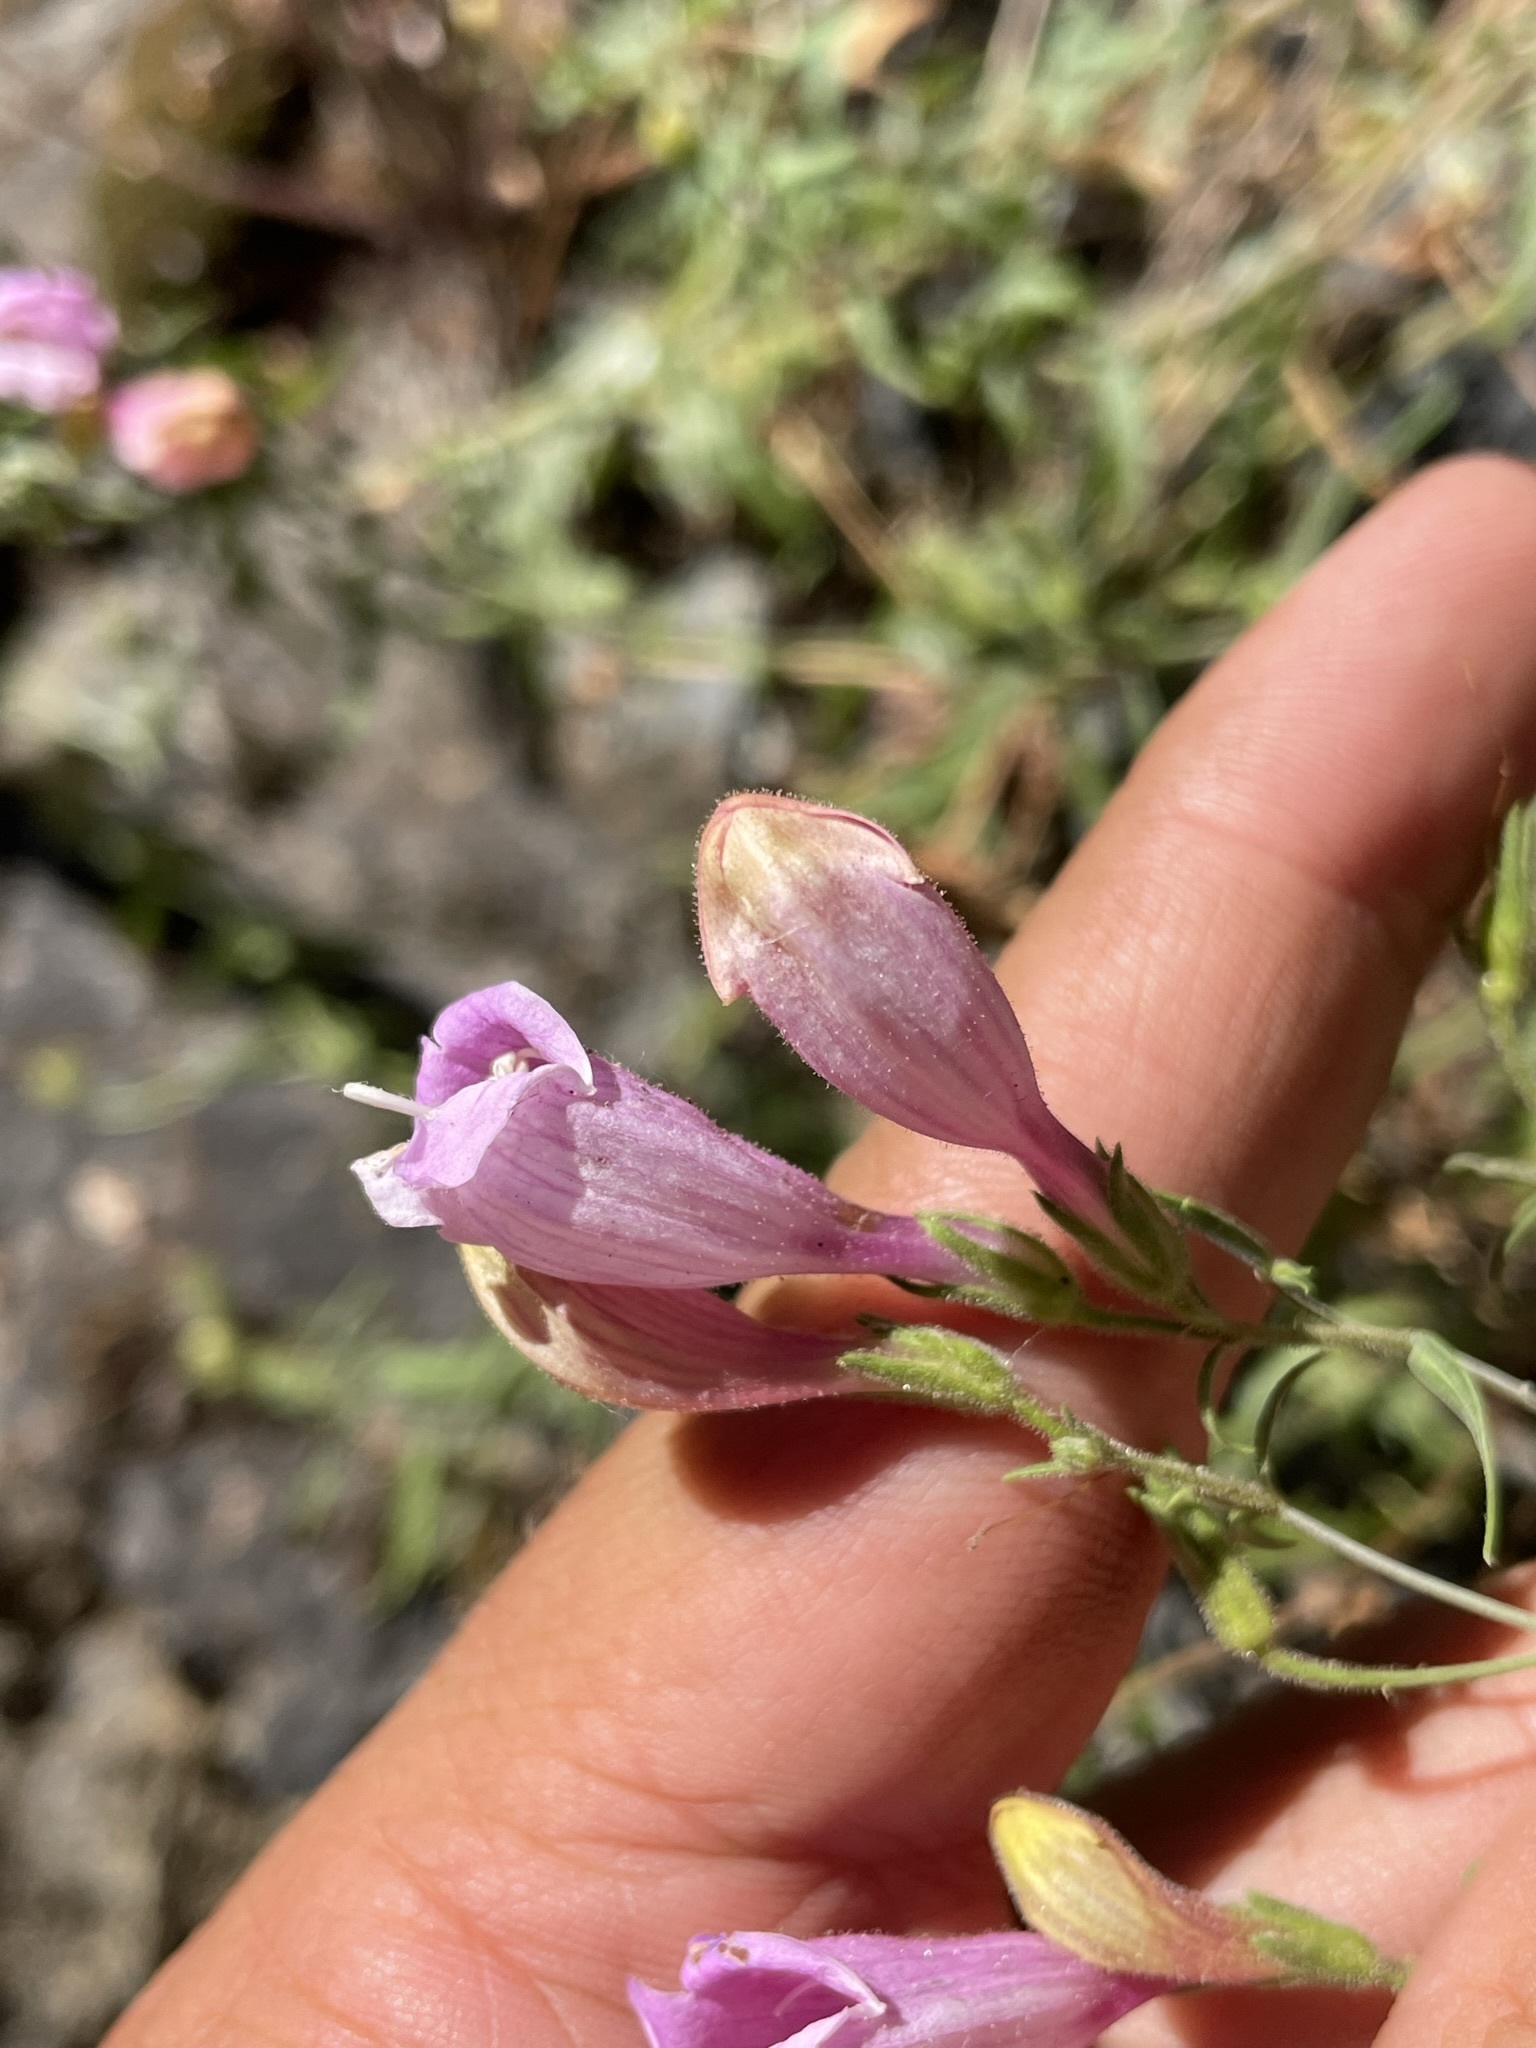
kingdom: Plantae
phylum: Tracheophyta
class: Magnoliopsida
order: Lamiales
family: Plantaginaceae
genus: Penstemon
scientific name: Penstemon richardsonii
